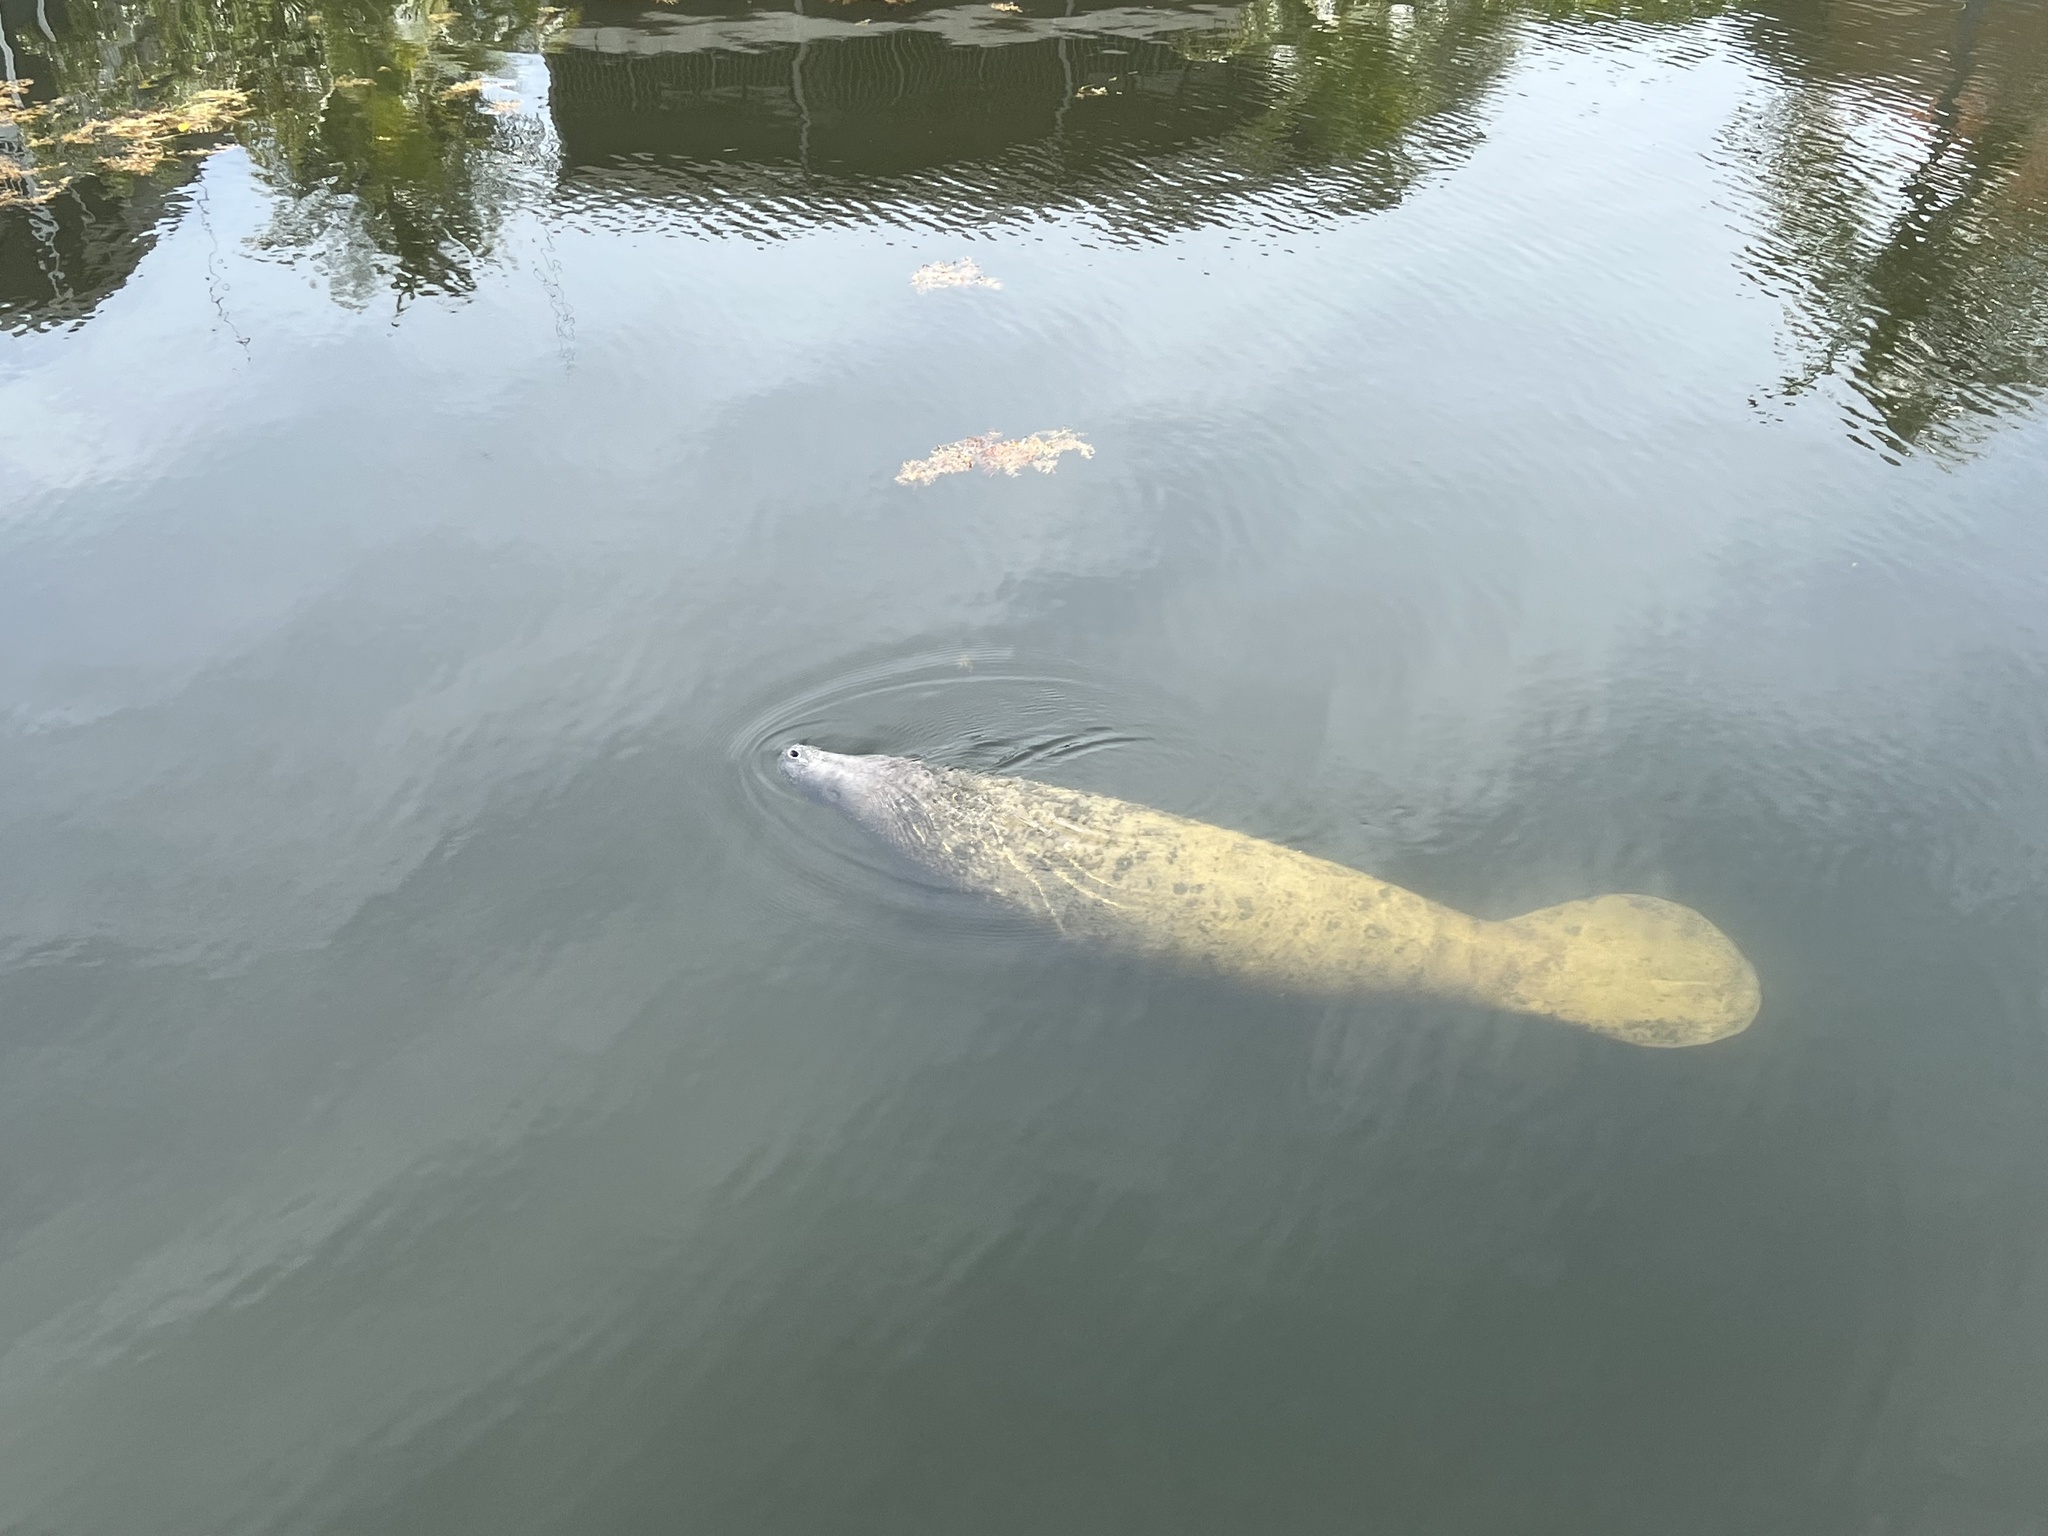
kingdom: Animalia
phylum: Chordata
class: Mammalia
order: Sirenia
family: Trichechidae
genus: Trichechus
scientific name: Trichechus manatus
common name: West indian manatee
